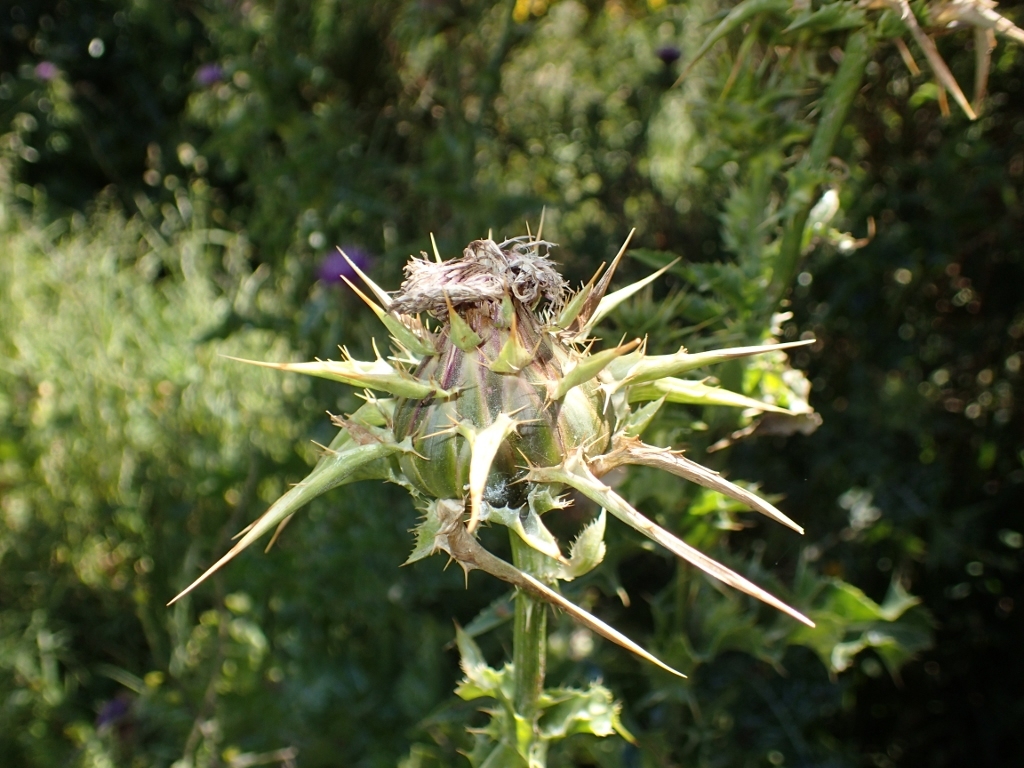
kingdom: Plantae
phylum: Tracheophyta
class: Magnoliopsida
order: Asterales
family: Asteraceae
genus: Silybum
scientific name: Silybum marianum
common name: Milk thistle
